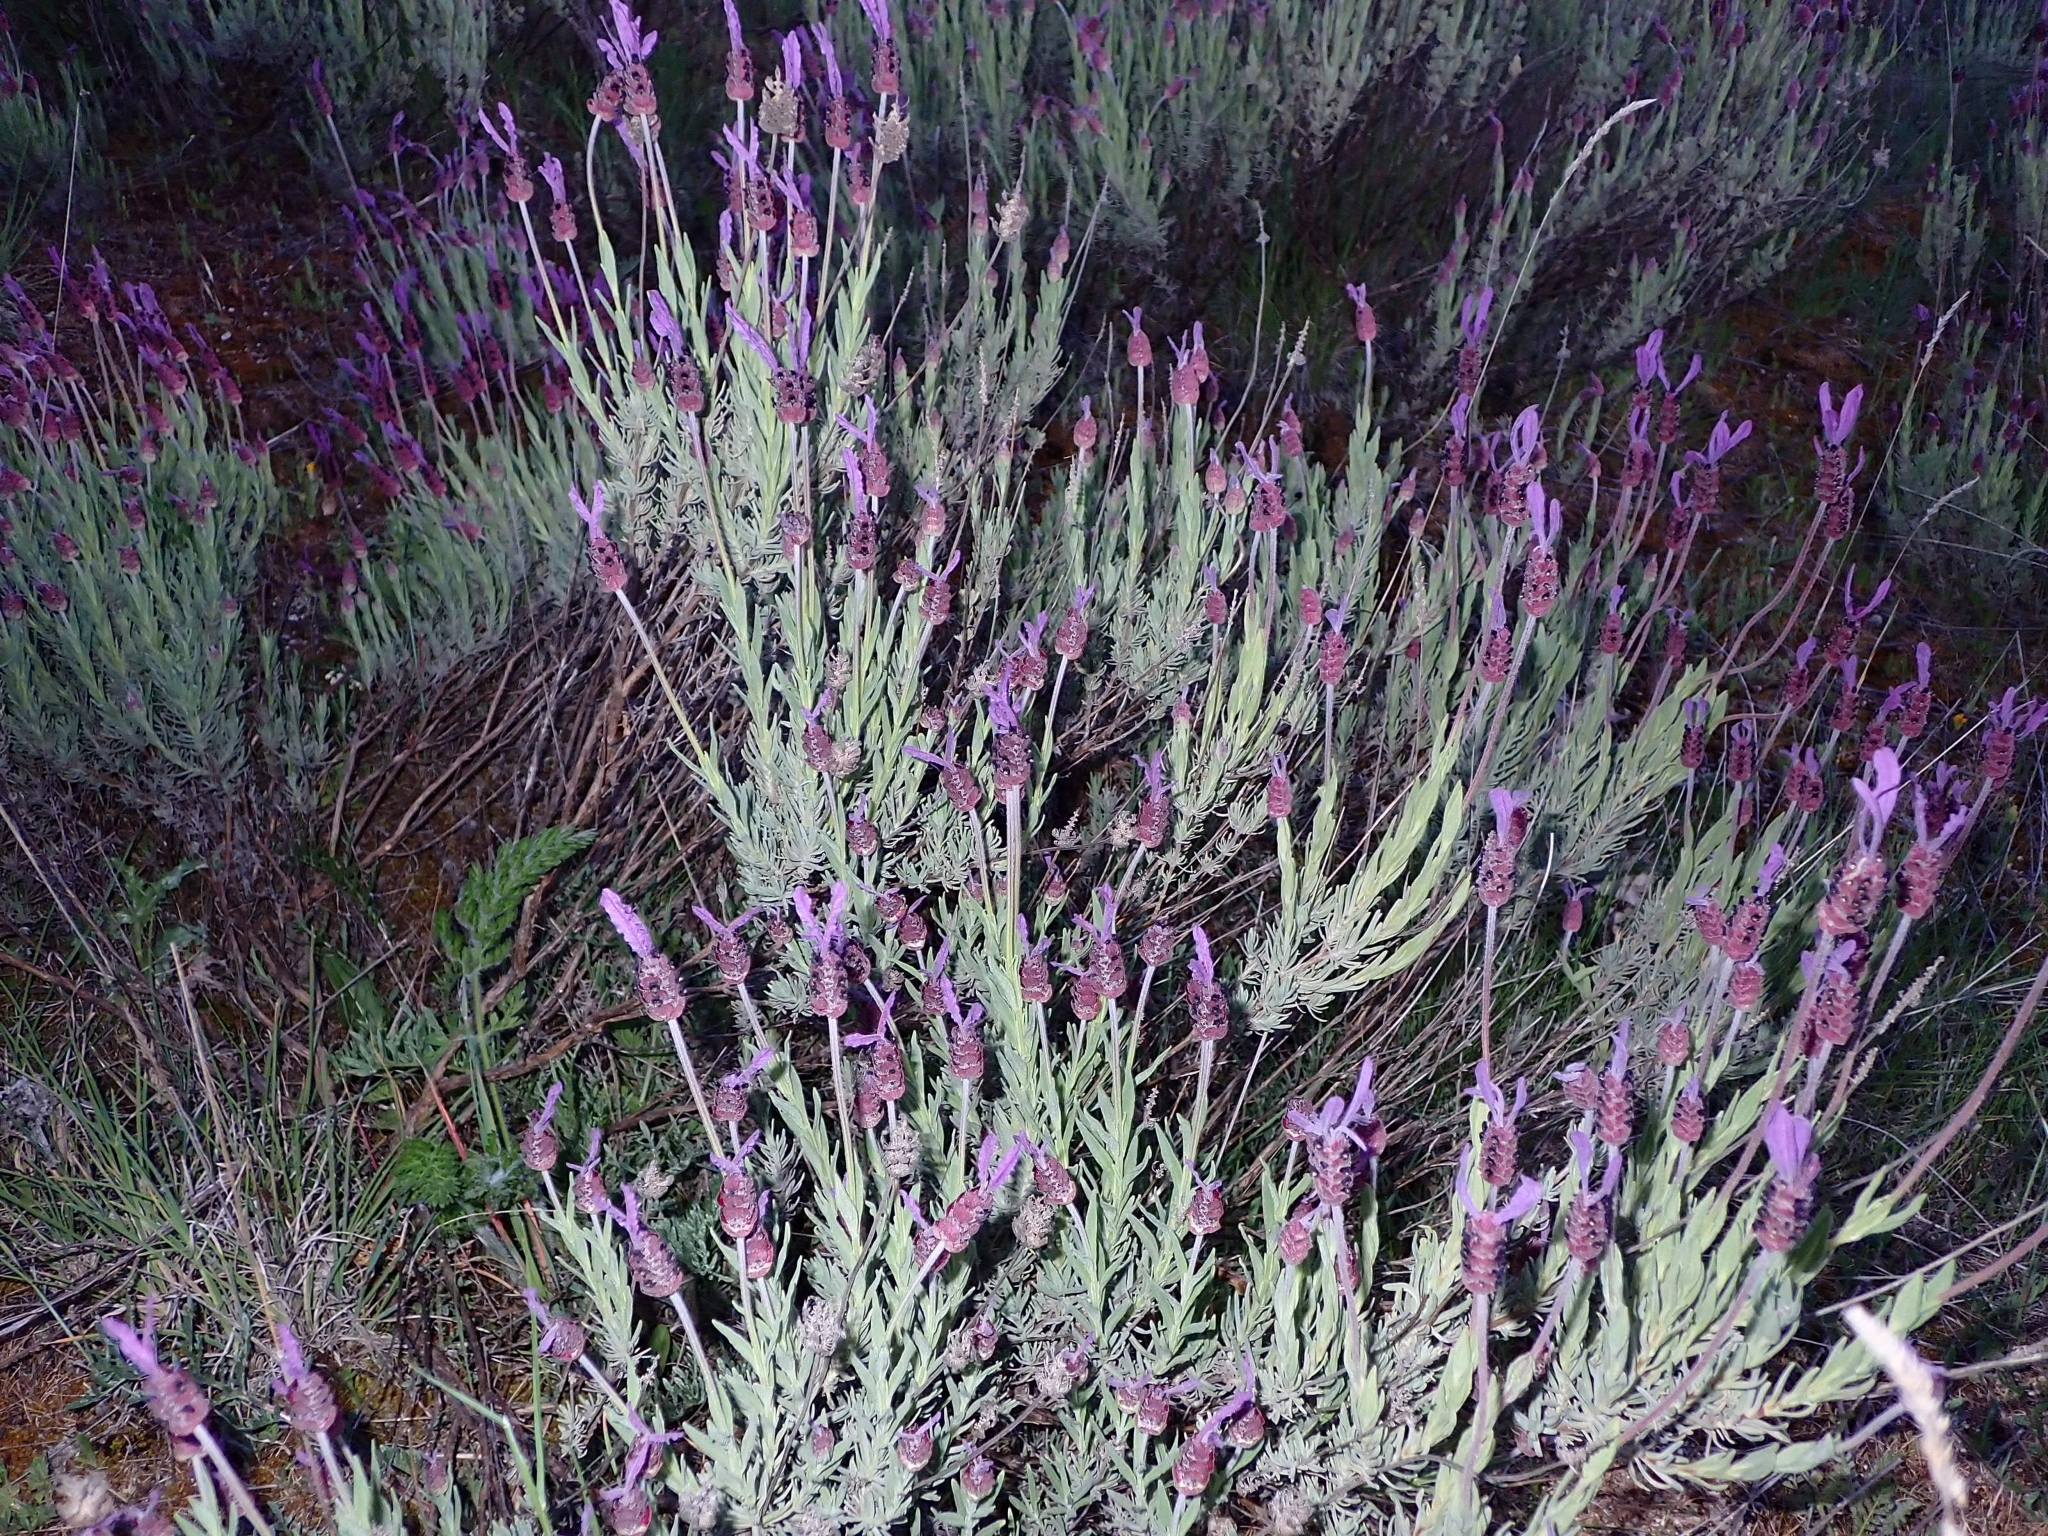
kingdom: Plantae
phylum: Tracheophyta
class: Magnoliopsida
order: Lamiales
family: Lamiaceae
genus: Lavandula
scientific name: Lavandula pedunculata
